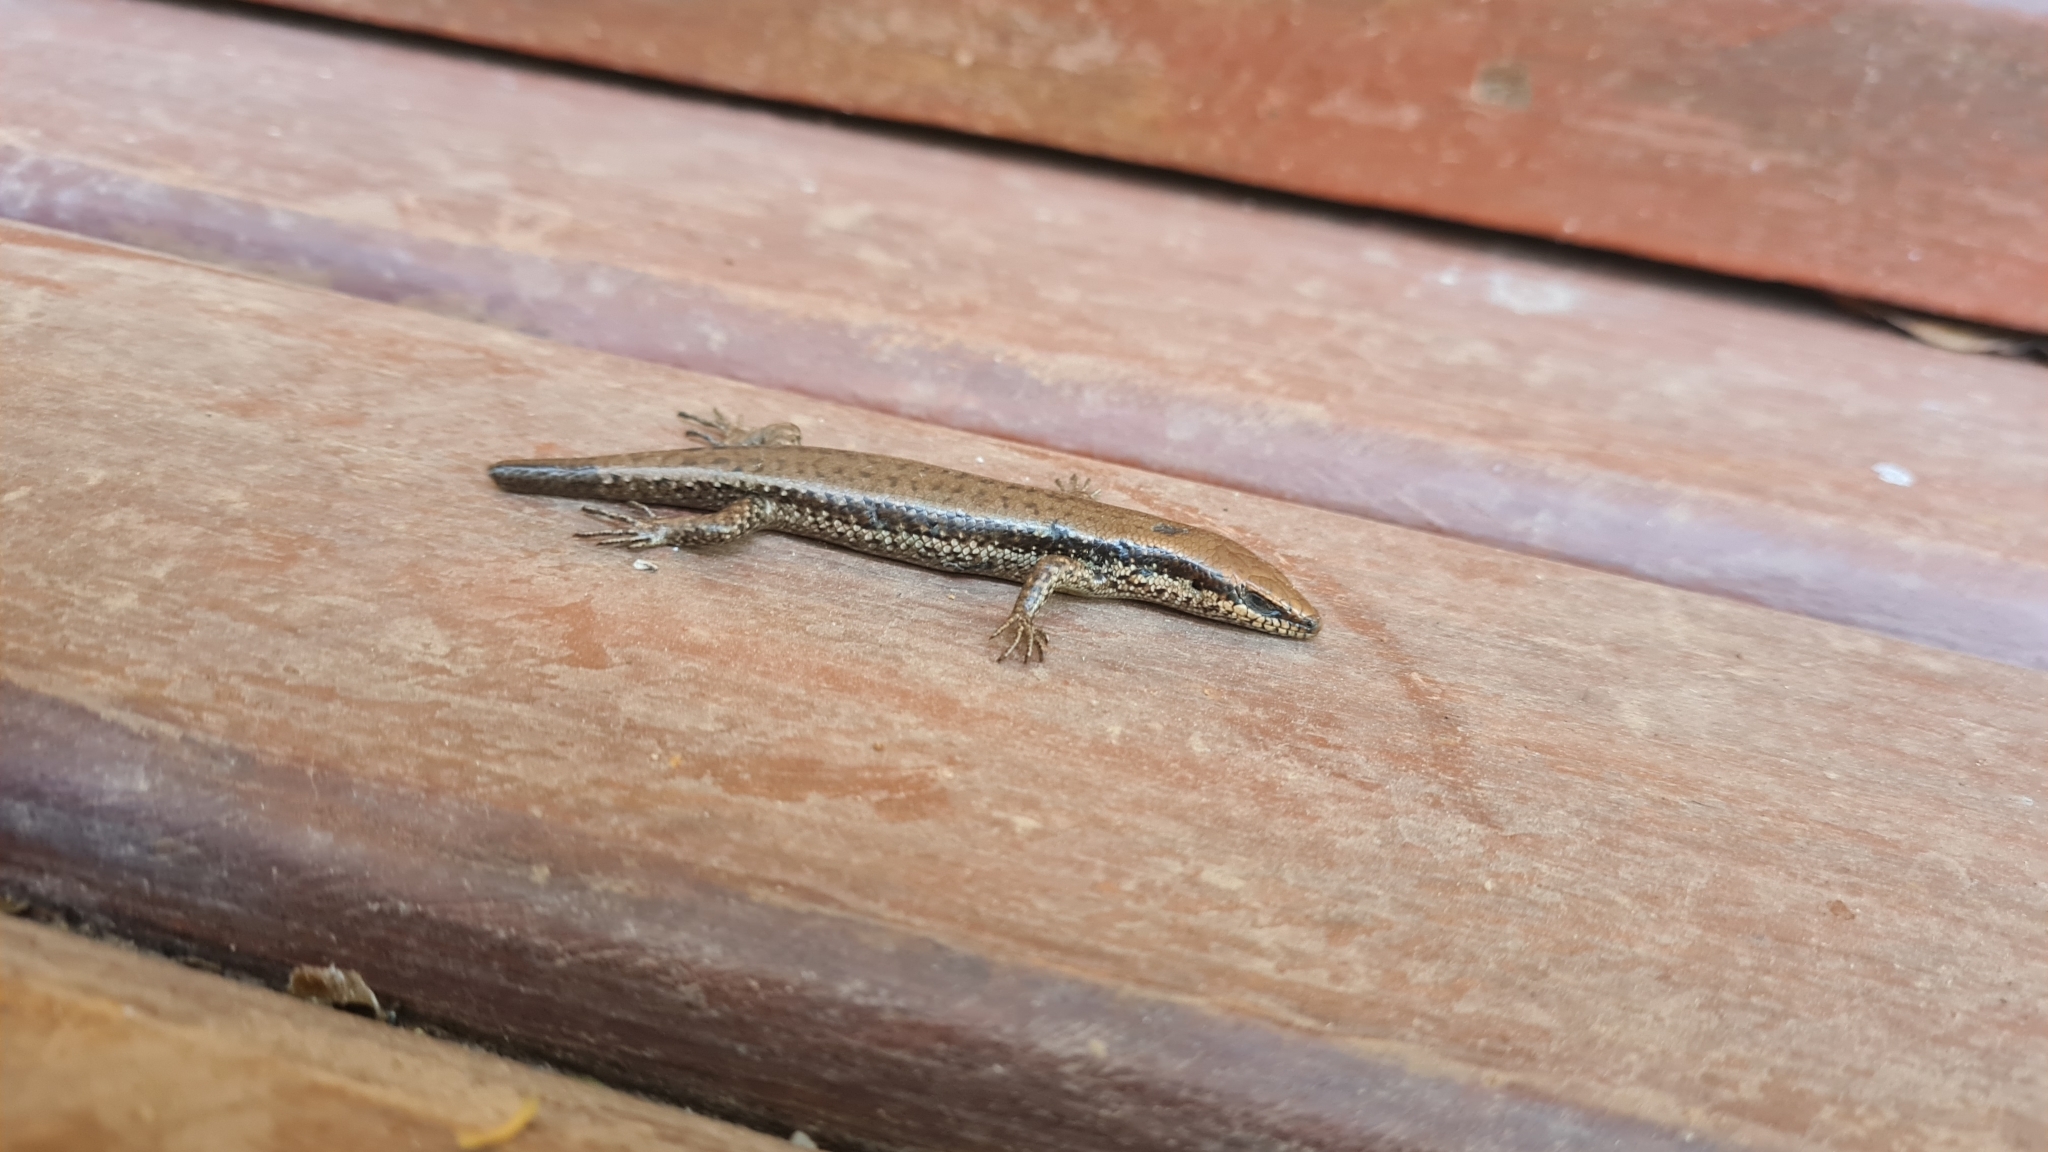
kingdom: Animalia
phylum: Chordata
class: Squamata
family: Scincidae
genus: Notomabuya
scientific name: Notomabuya frenata
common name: Cope's mabuya
